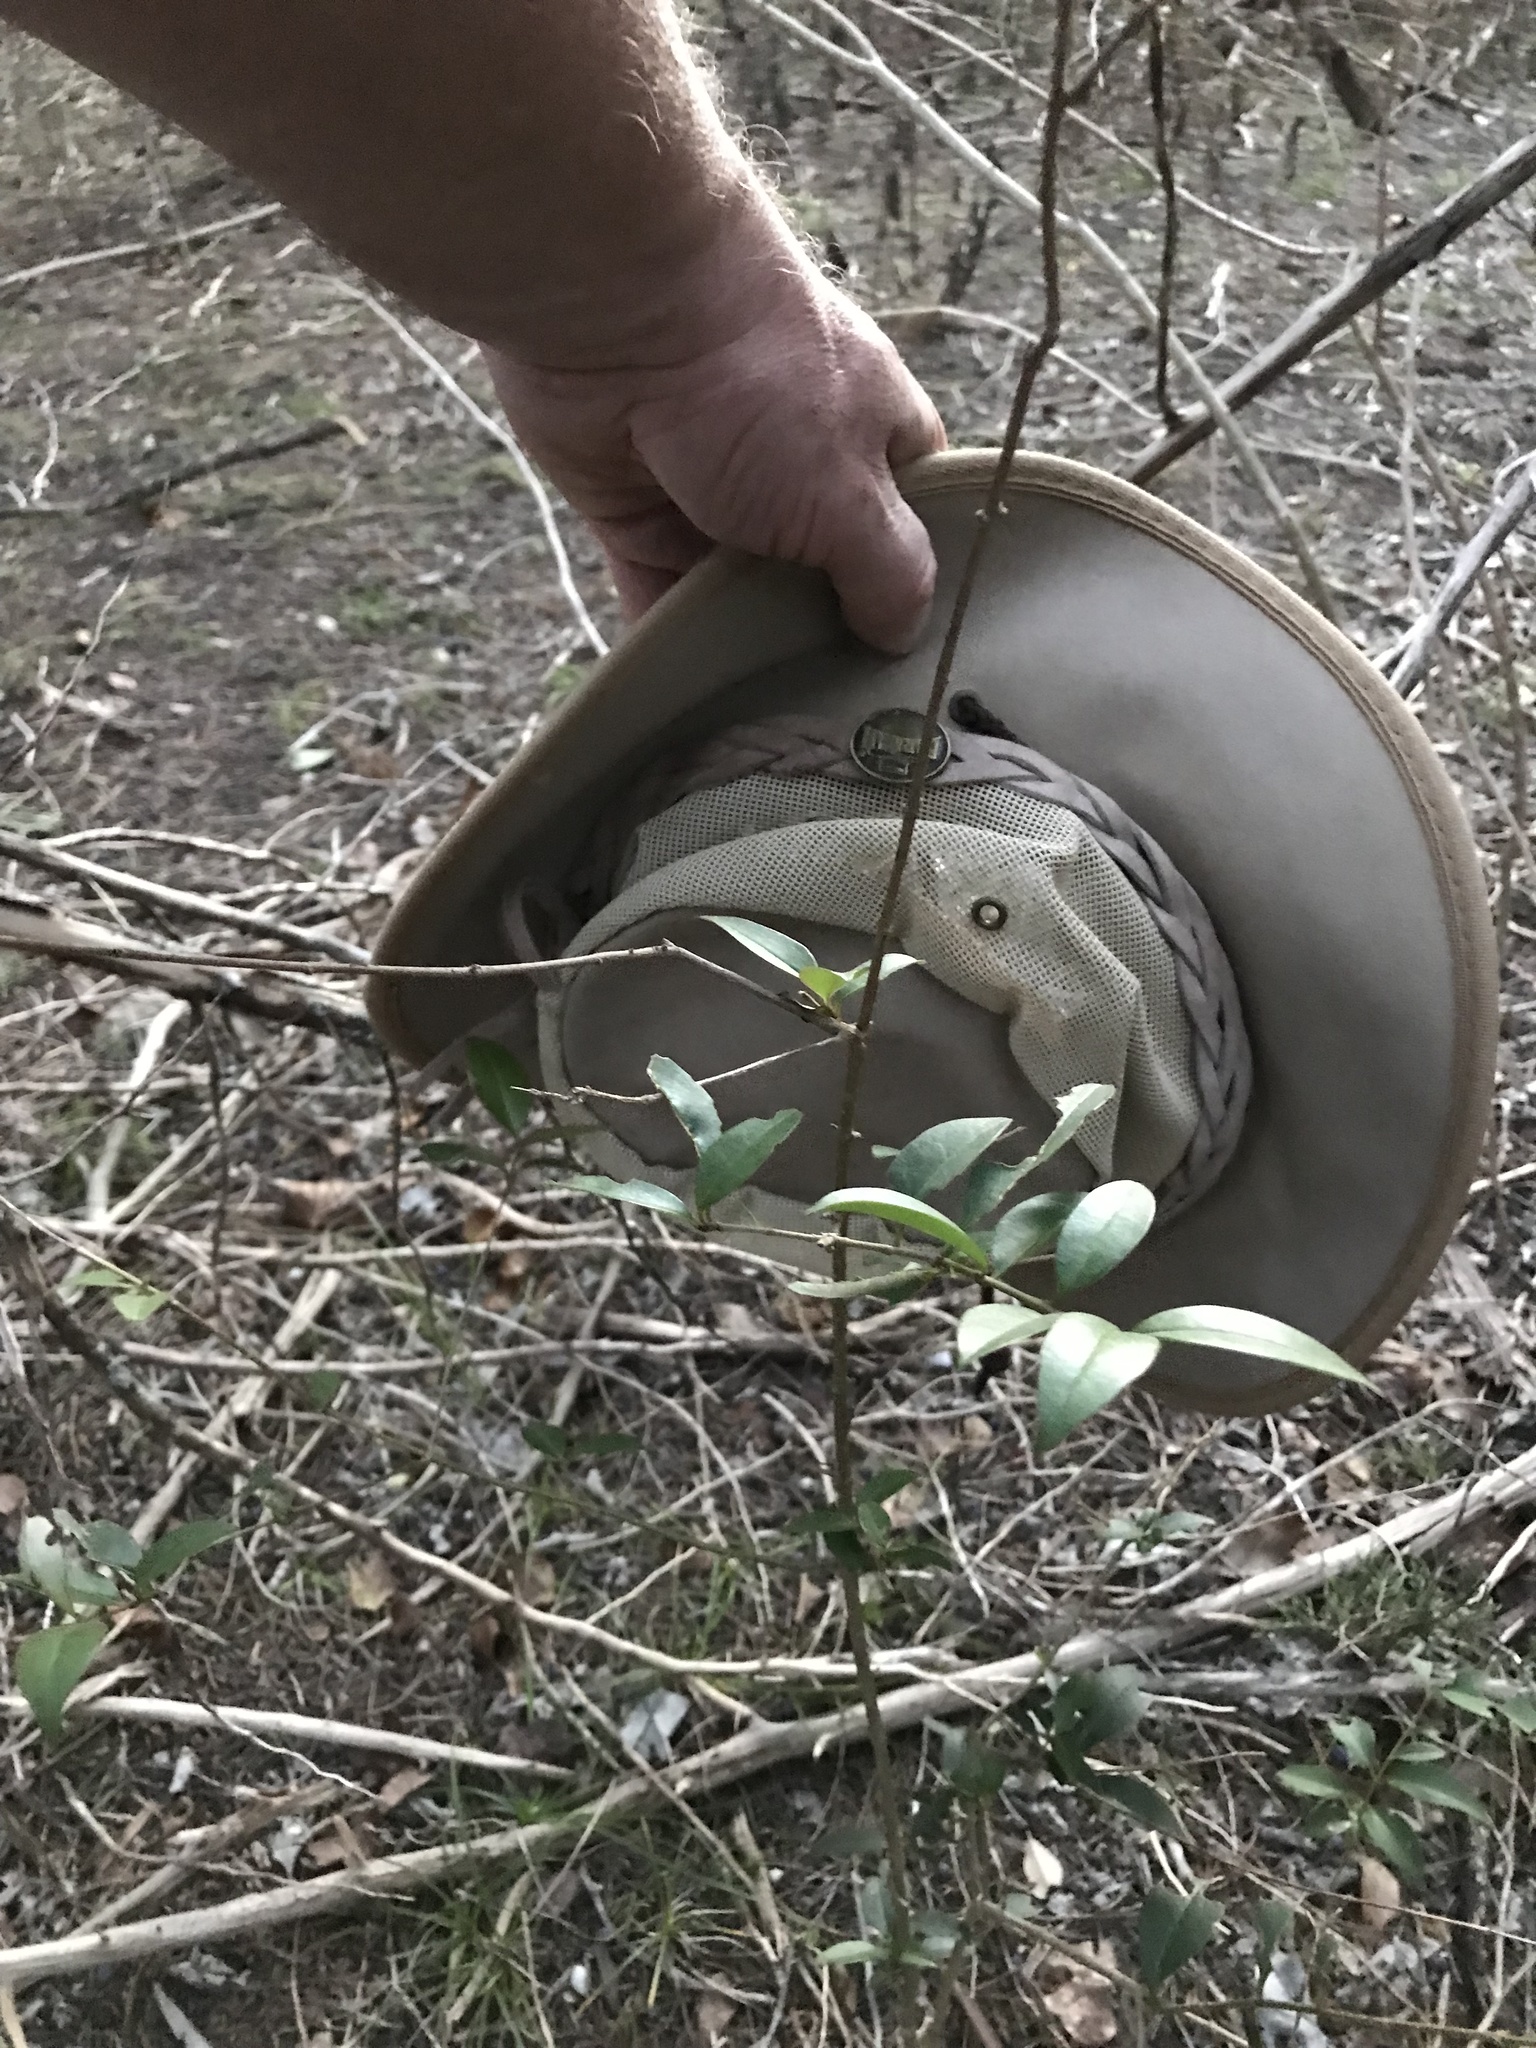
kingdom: Plantae
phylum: Tracheophyta
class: Magnoliopsida
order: Lamiales
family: Oleaceae
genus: Ligustrum
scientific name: Ligustrum lucidum
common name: Glossy privet
